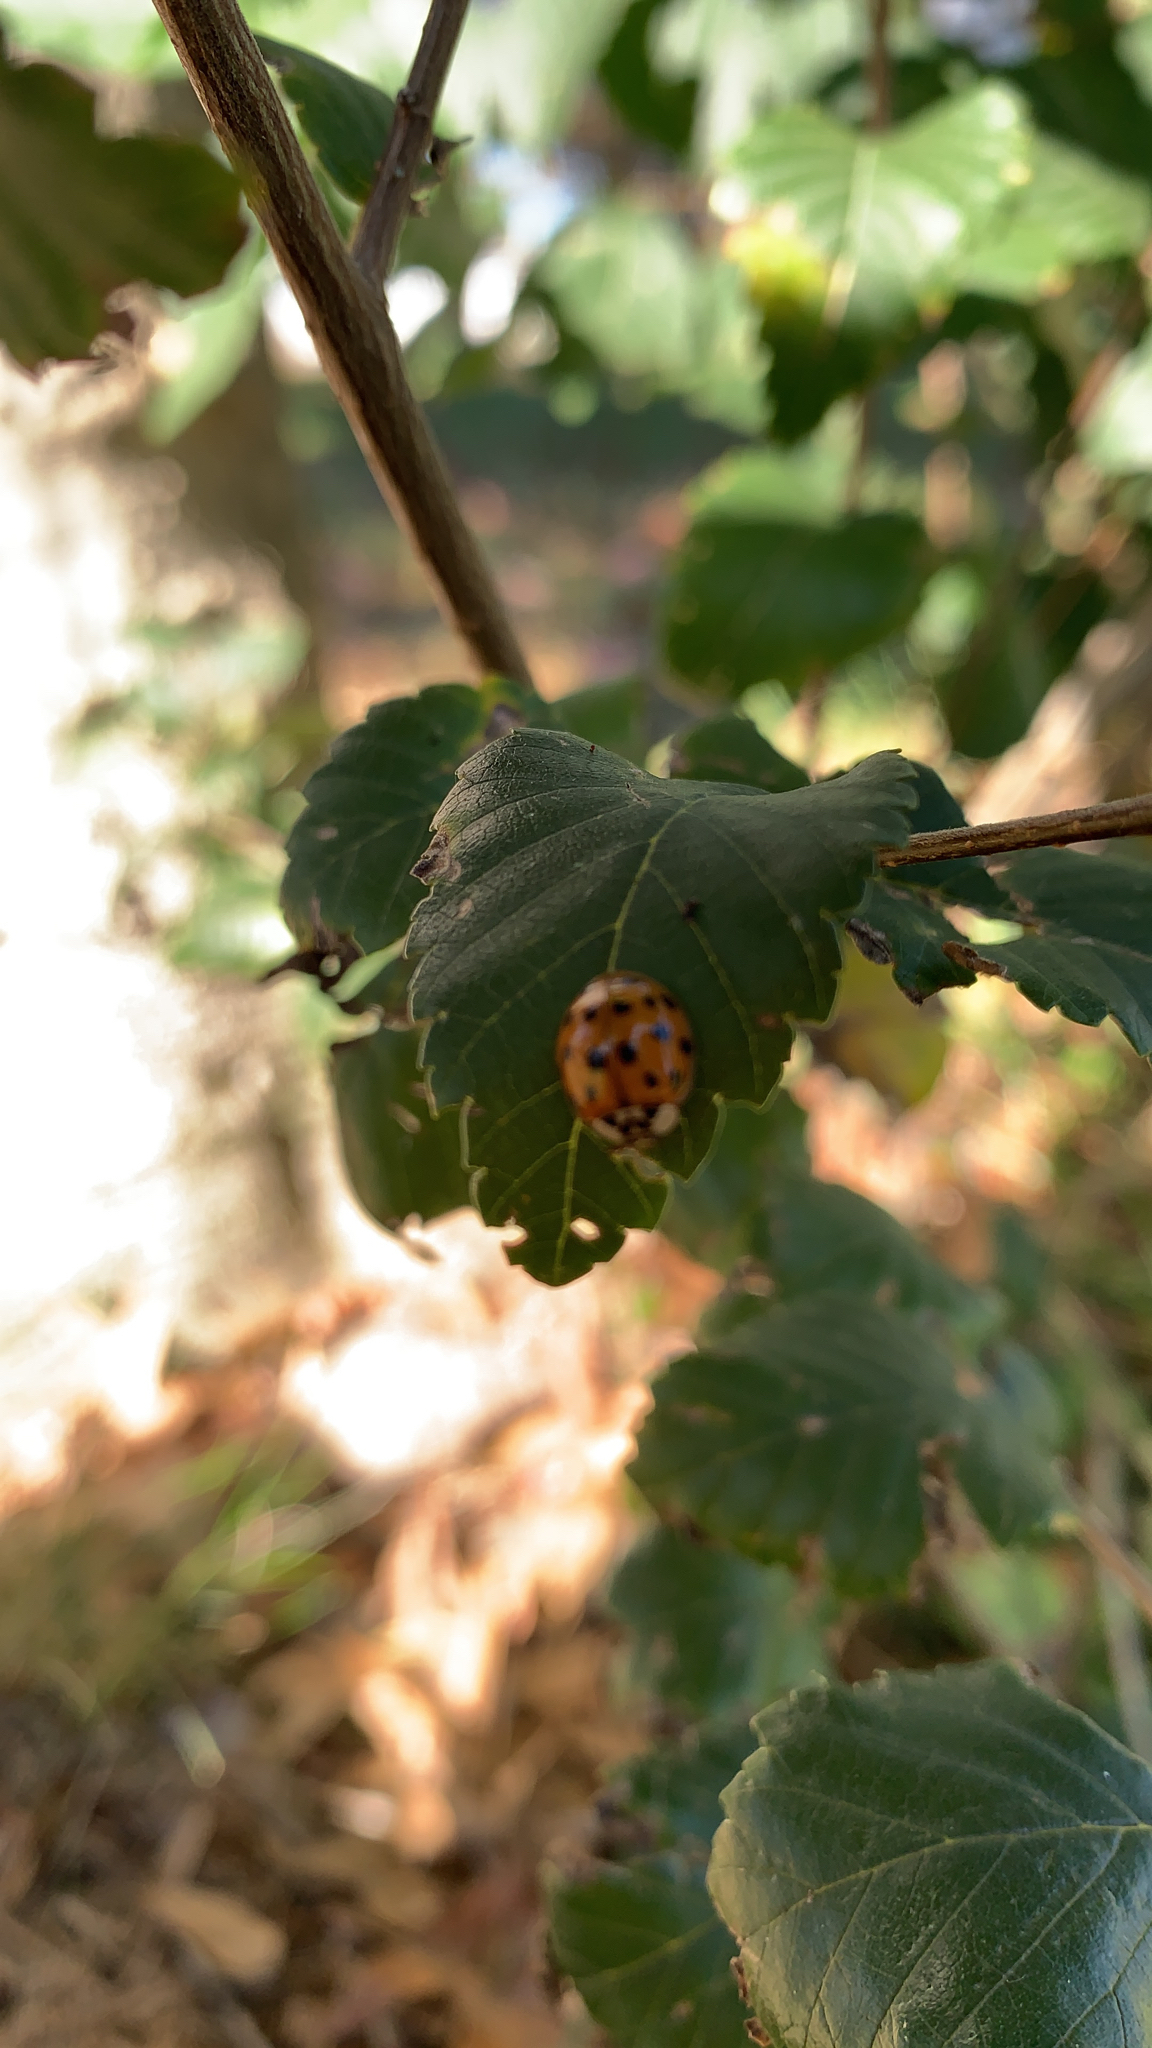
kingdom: Animalia
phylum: Arthropoda
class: Insecta
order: Coleoptera
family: Coccinellidae
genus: Harmonia
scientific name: Harmonia axyridis
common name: Harlequin ladybird
